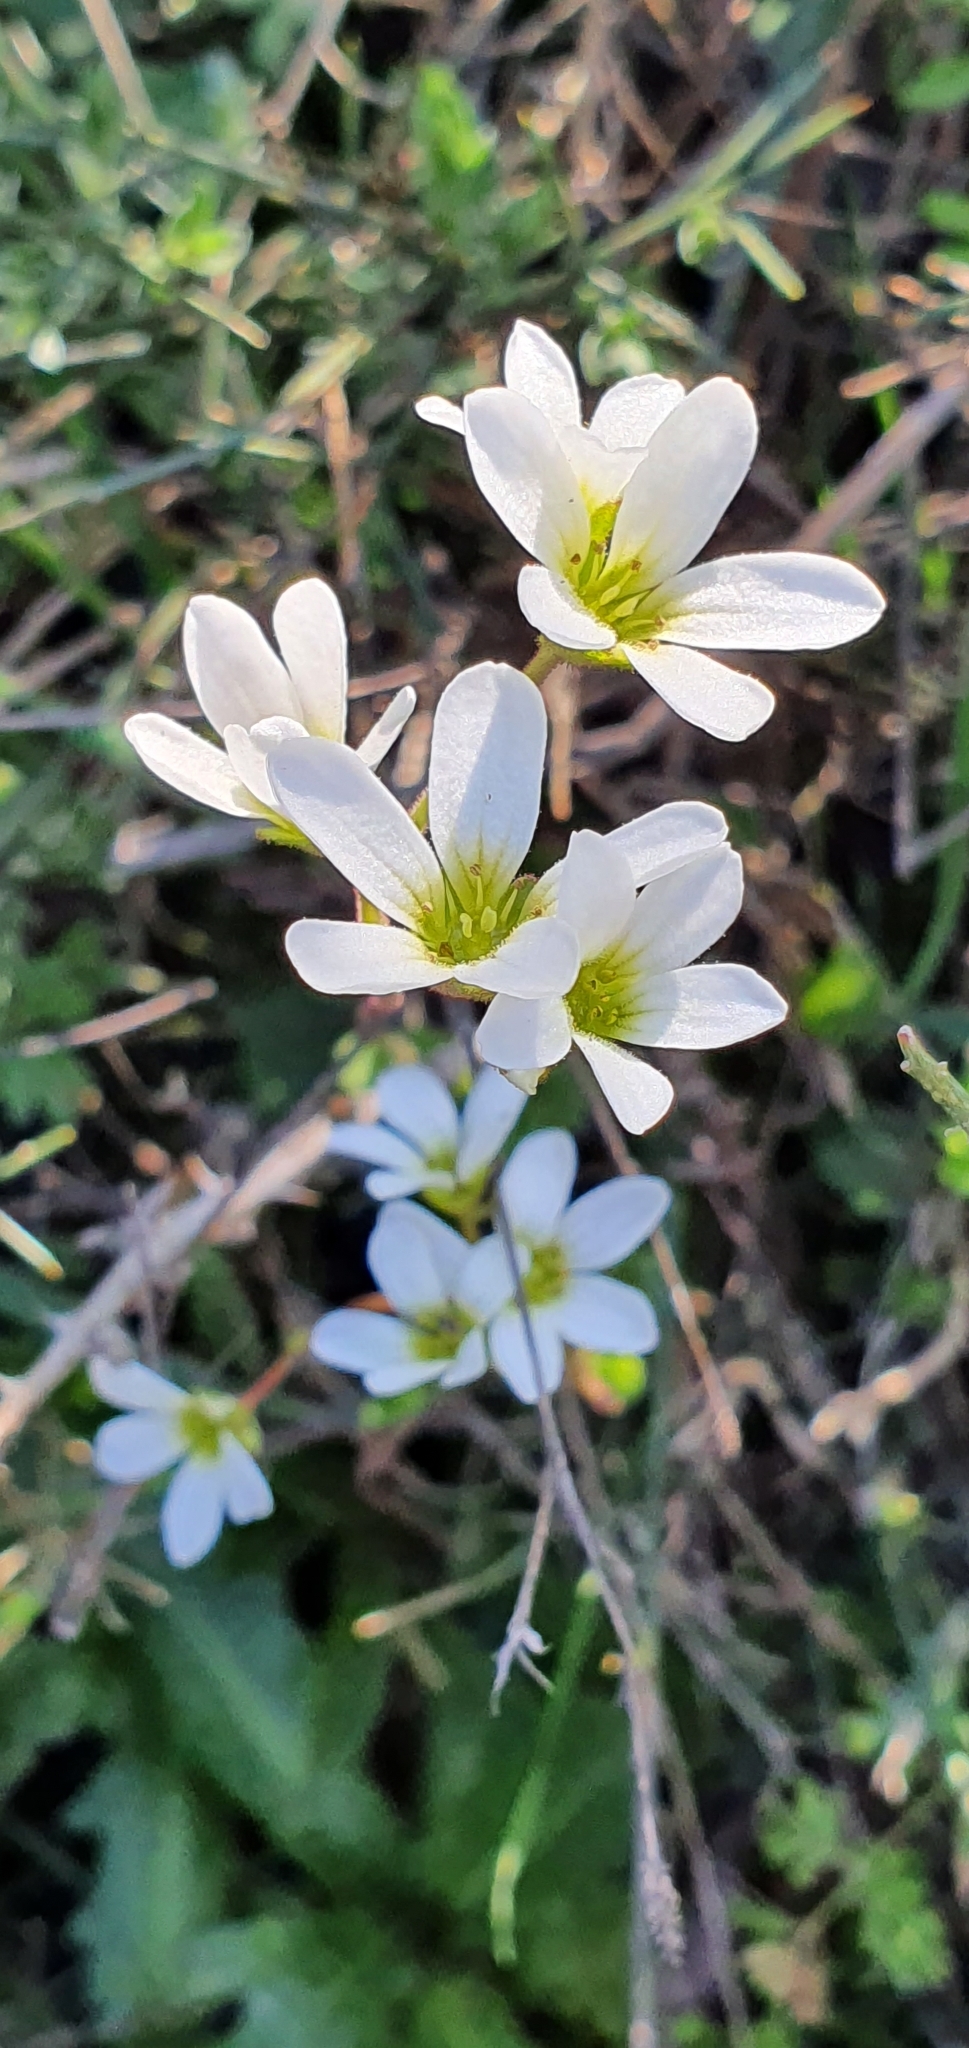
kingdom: Plantae
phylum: Tracheophyta
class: Magnoliopsida
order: Saxifragales
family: Saxifragaceae
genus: Saxifraga
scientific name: Saxifraga carpetana
